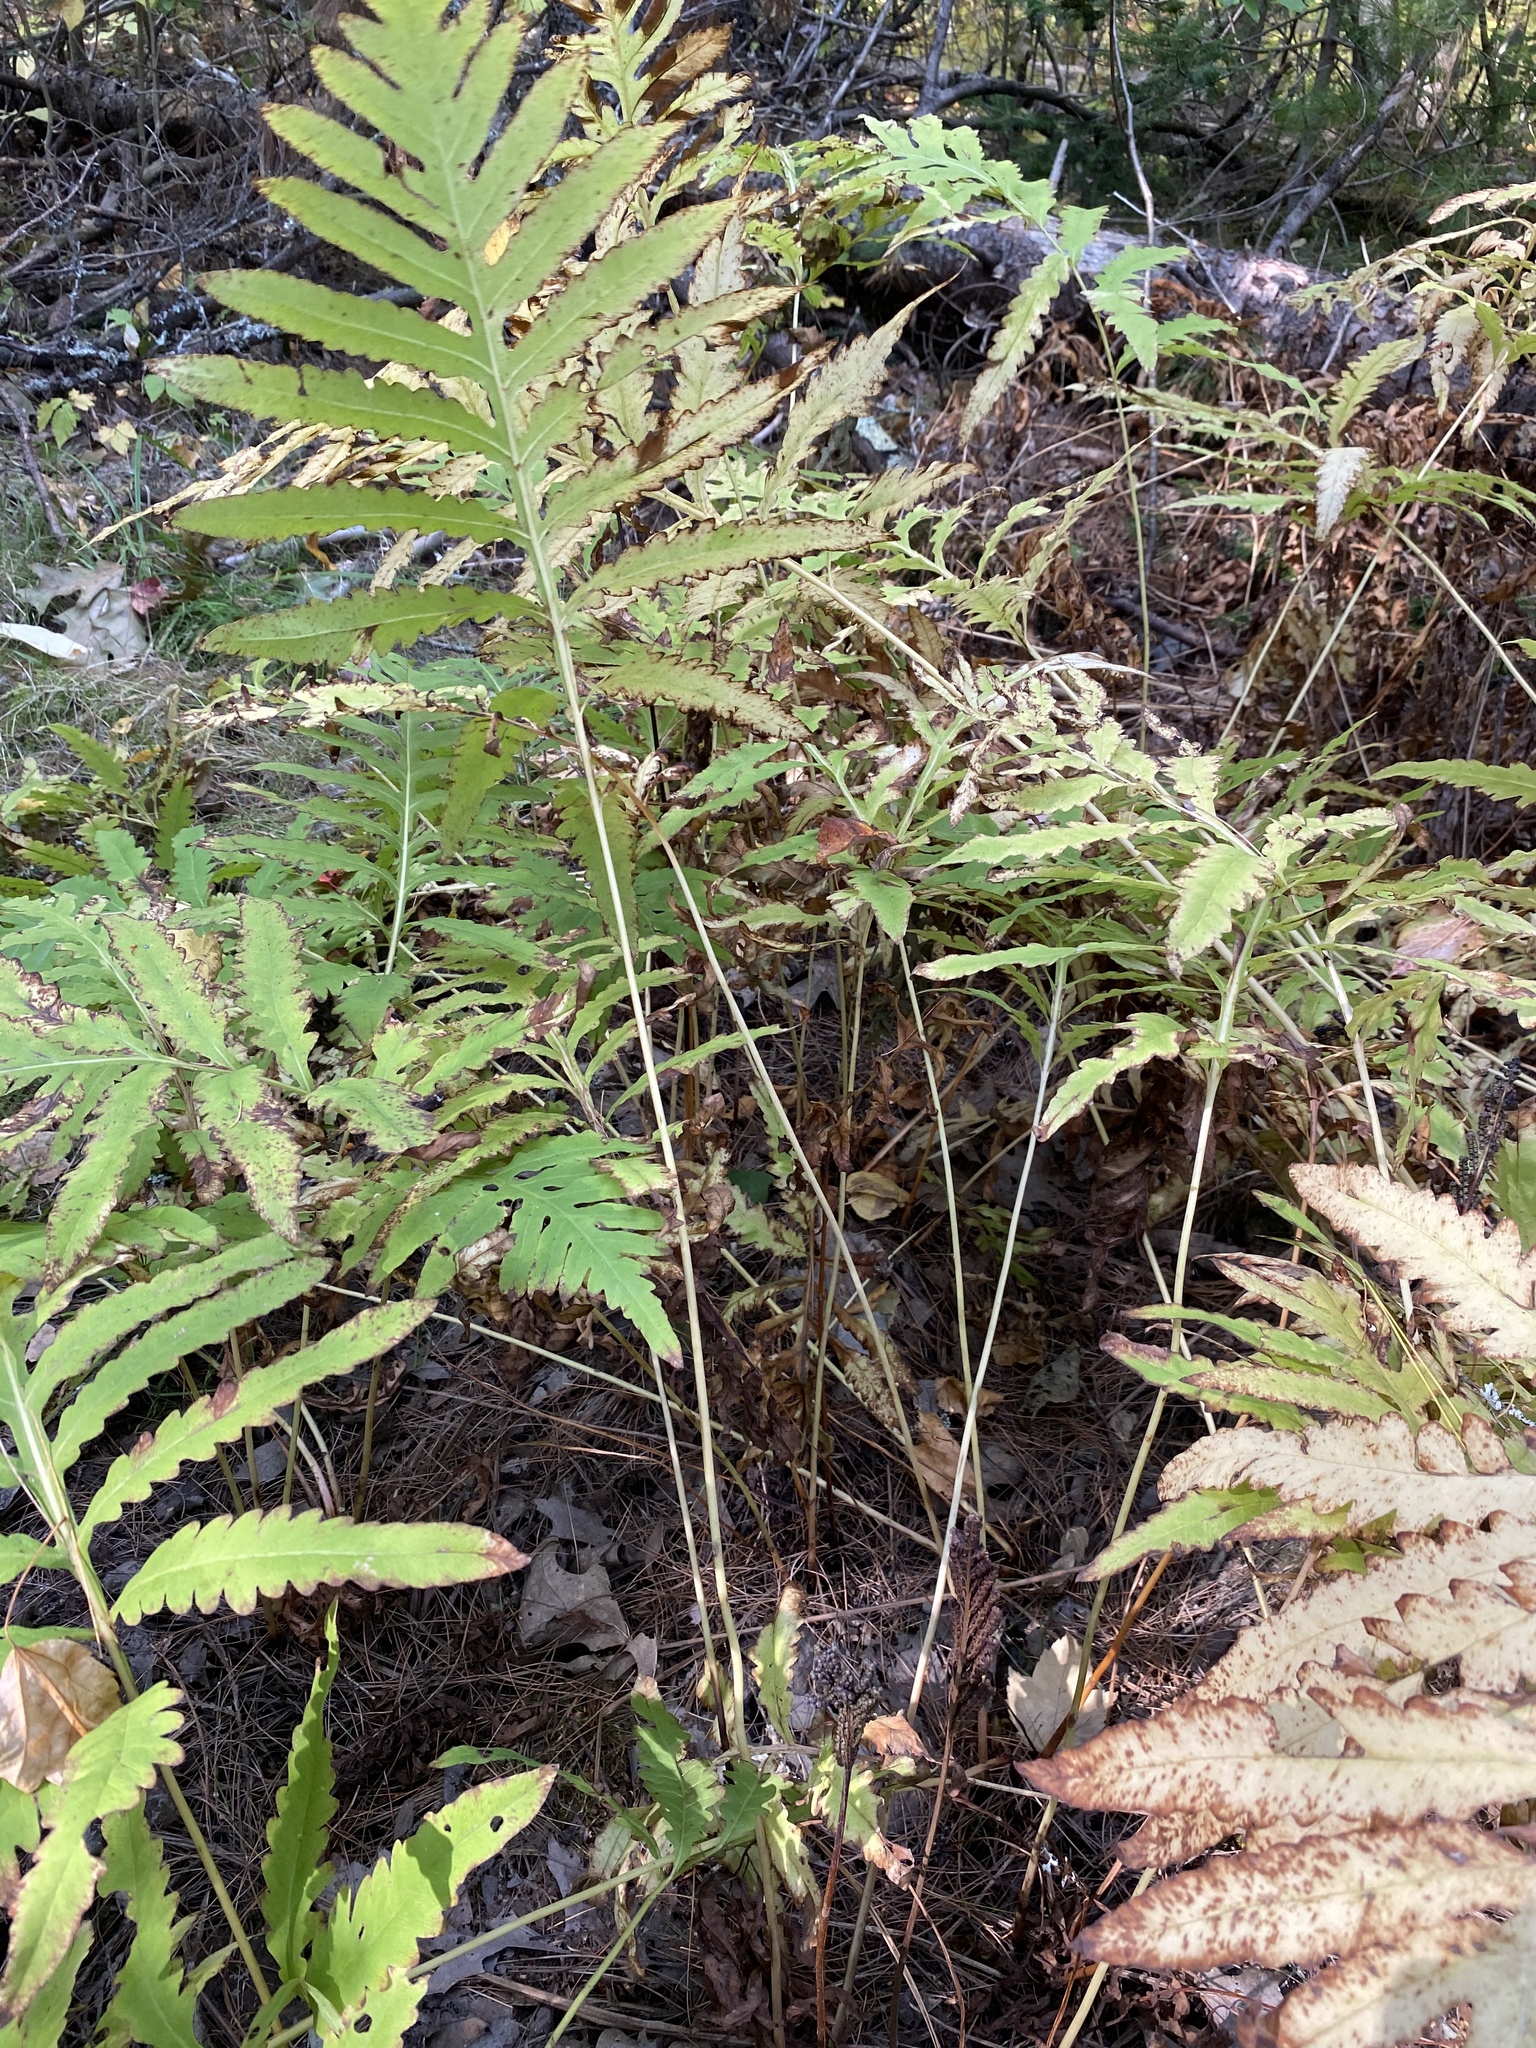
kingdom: Plantae
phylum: Tracheophyta
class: Polypodiopsida
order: Polypodiales
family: Onocleaceae
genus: Onoclea
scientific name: Onoclea sensibilis
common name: Sensitive fern
